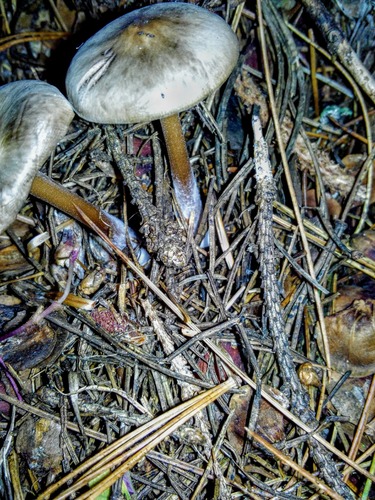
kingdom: Fungi
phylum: Basidiomycota
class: Agaricomycetes
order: Agaricales
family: Omphalotaceae
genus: Rhodocollybia
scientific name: Rhodocollybia butyracea
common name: Butter cap
